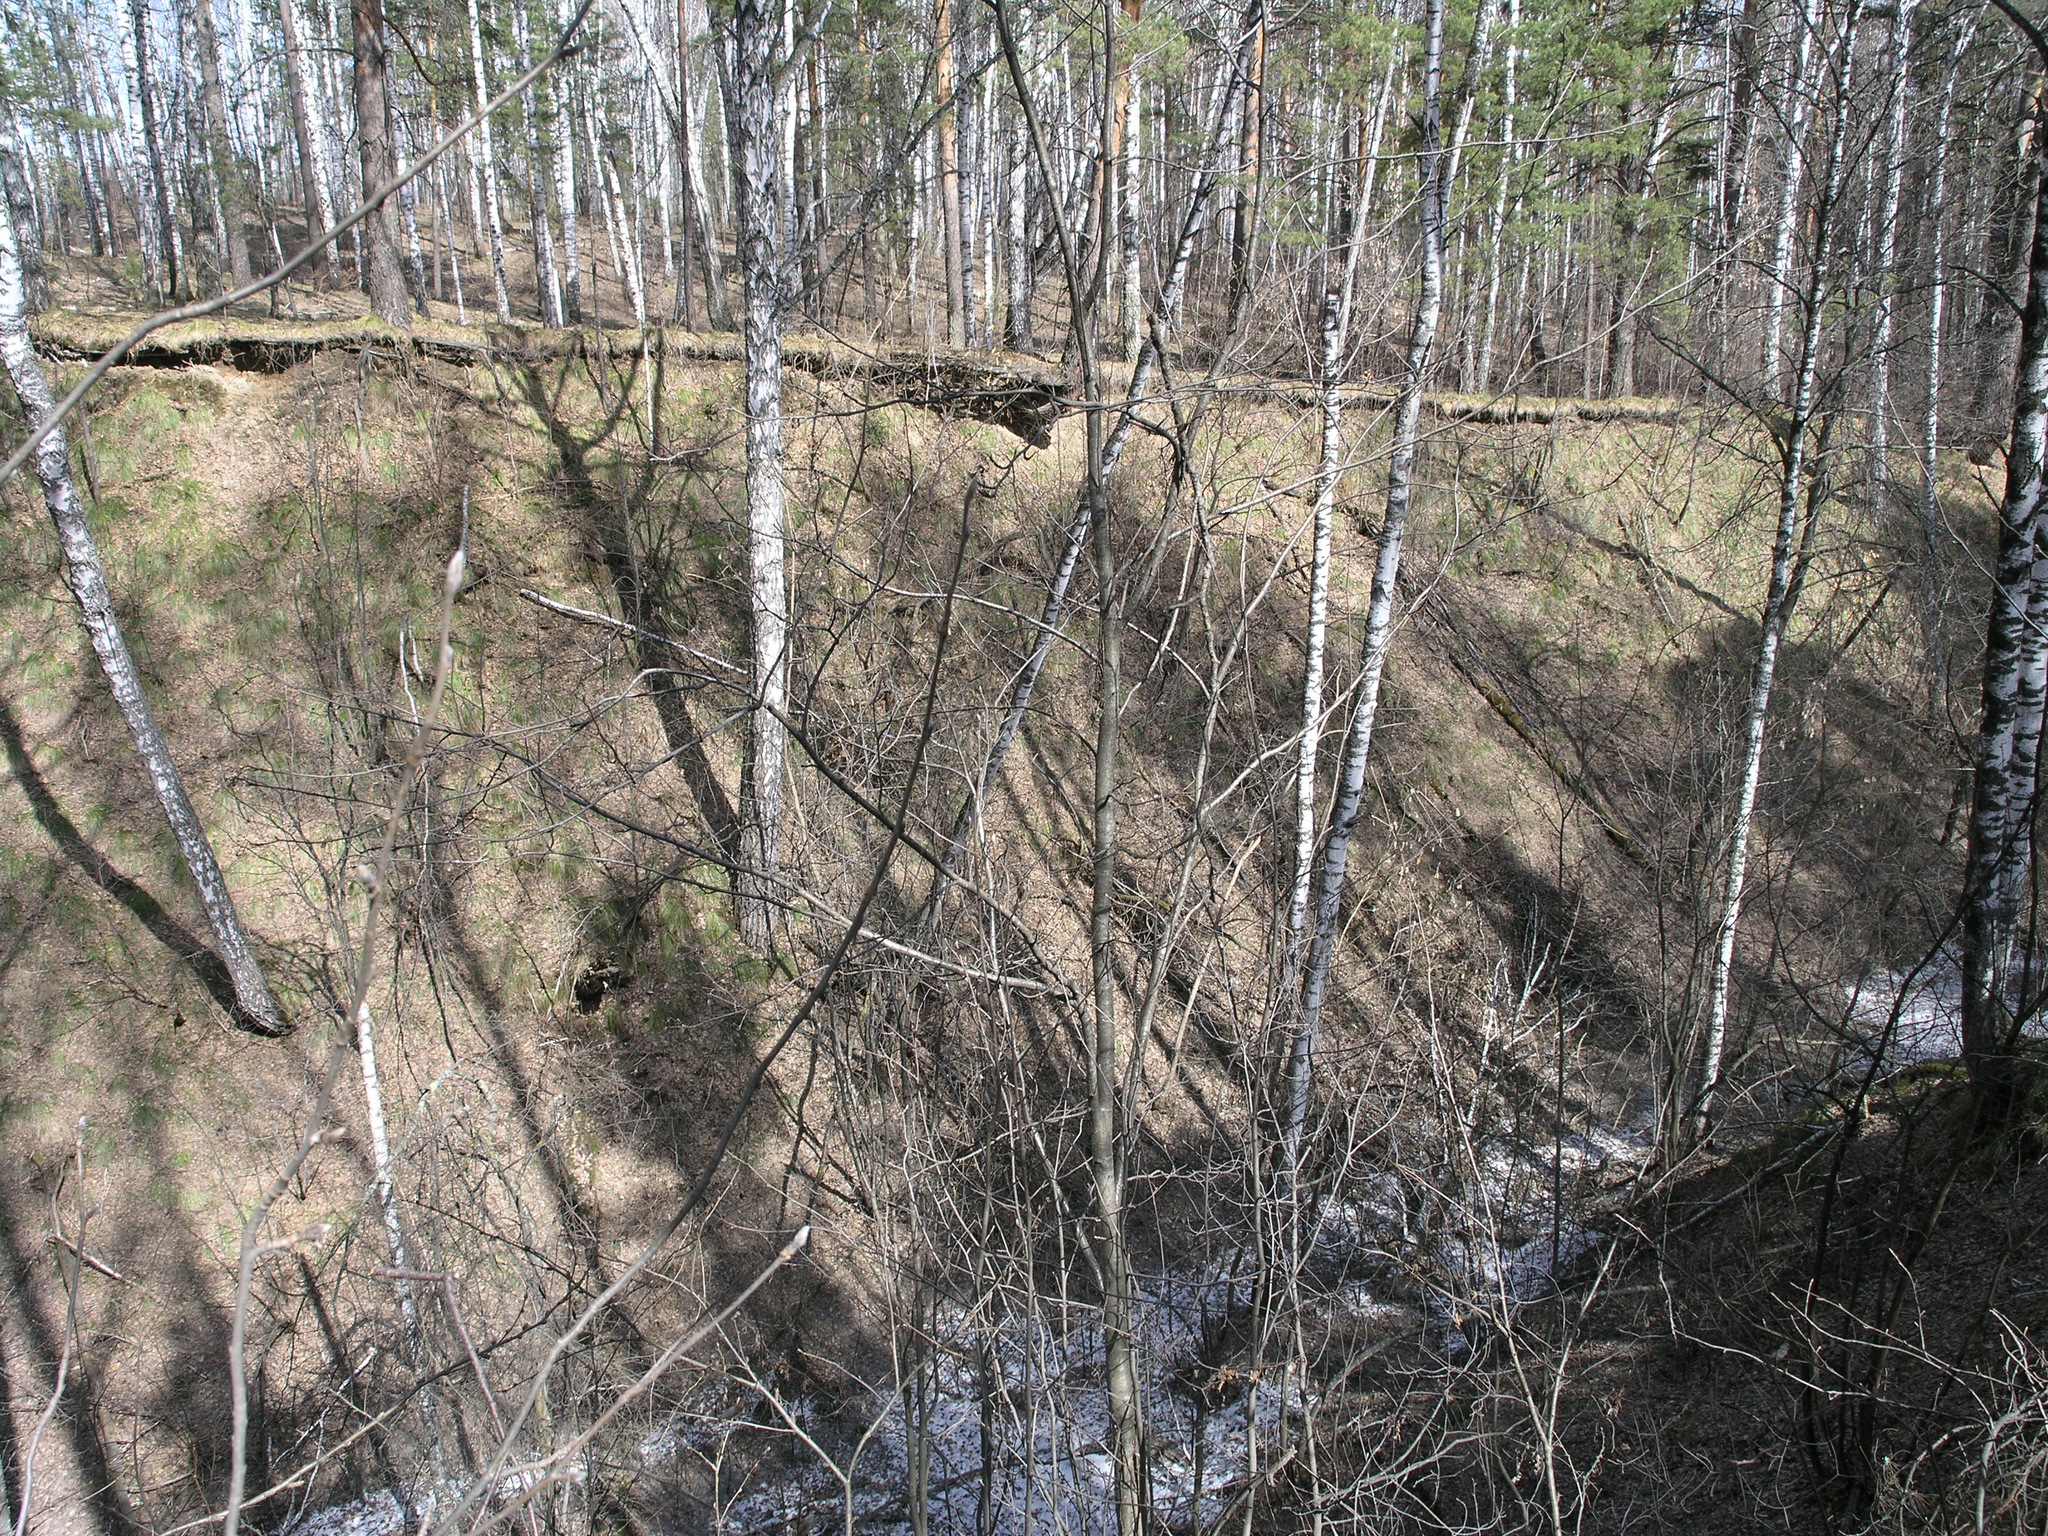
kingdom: Plantae
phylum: Tracheophyta
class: Magnoliopsida
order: Fagales
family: Betulaceae
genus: Betula
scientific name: Betula pendula
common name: Silver birch
